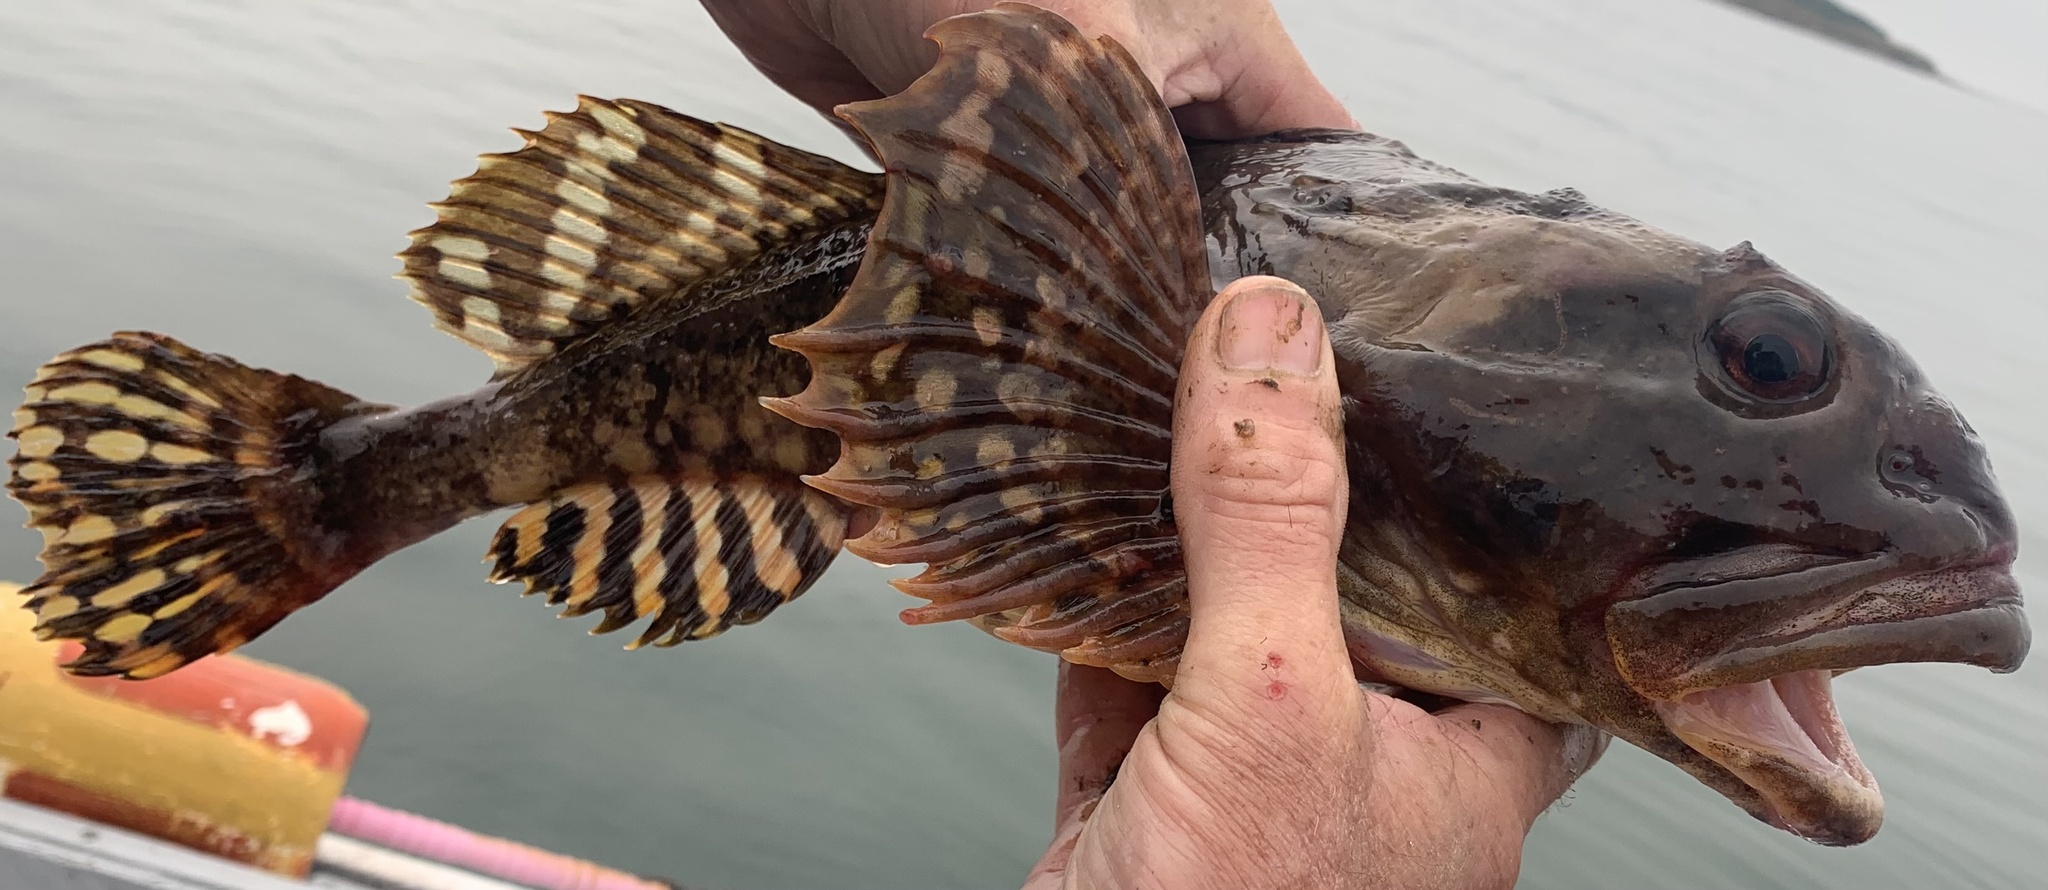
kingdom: Animalia
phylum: Chordata
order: Scorpaeniformes
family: Cottidae
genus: Myoxocephalus
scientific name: Myoxocephalus scorpius
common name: Shorthorn sculpin
